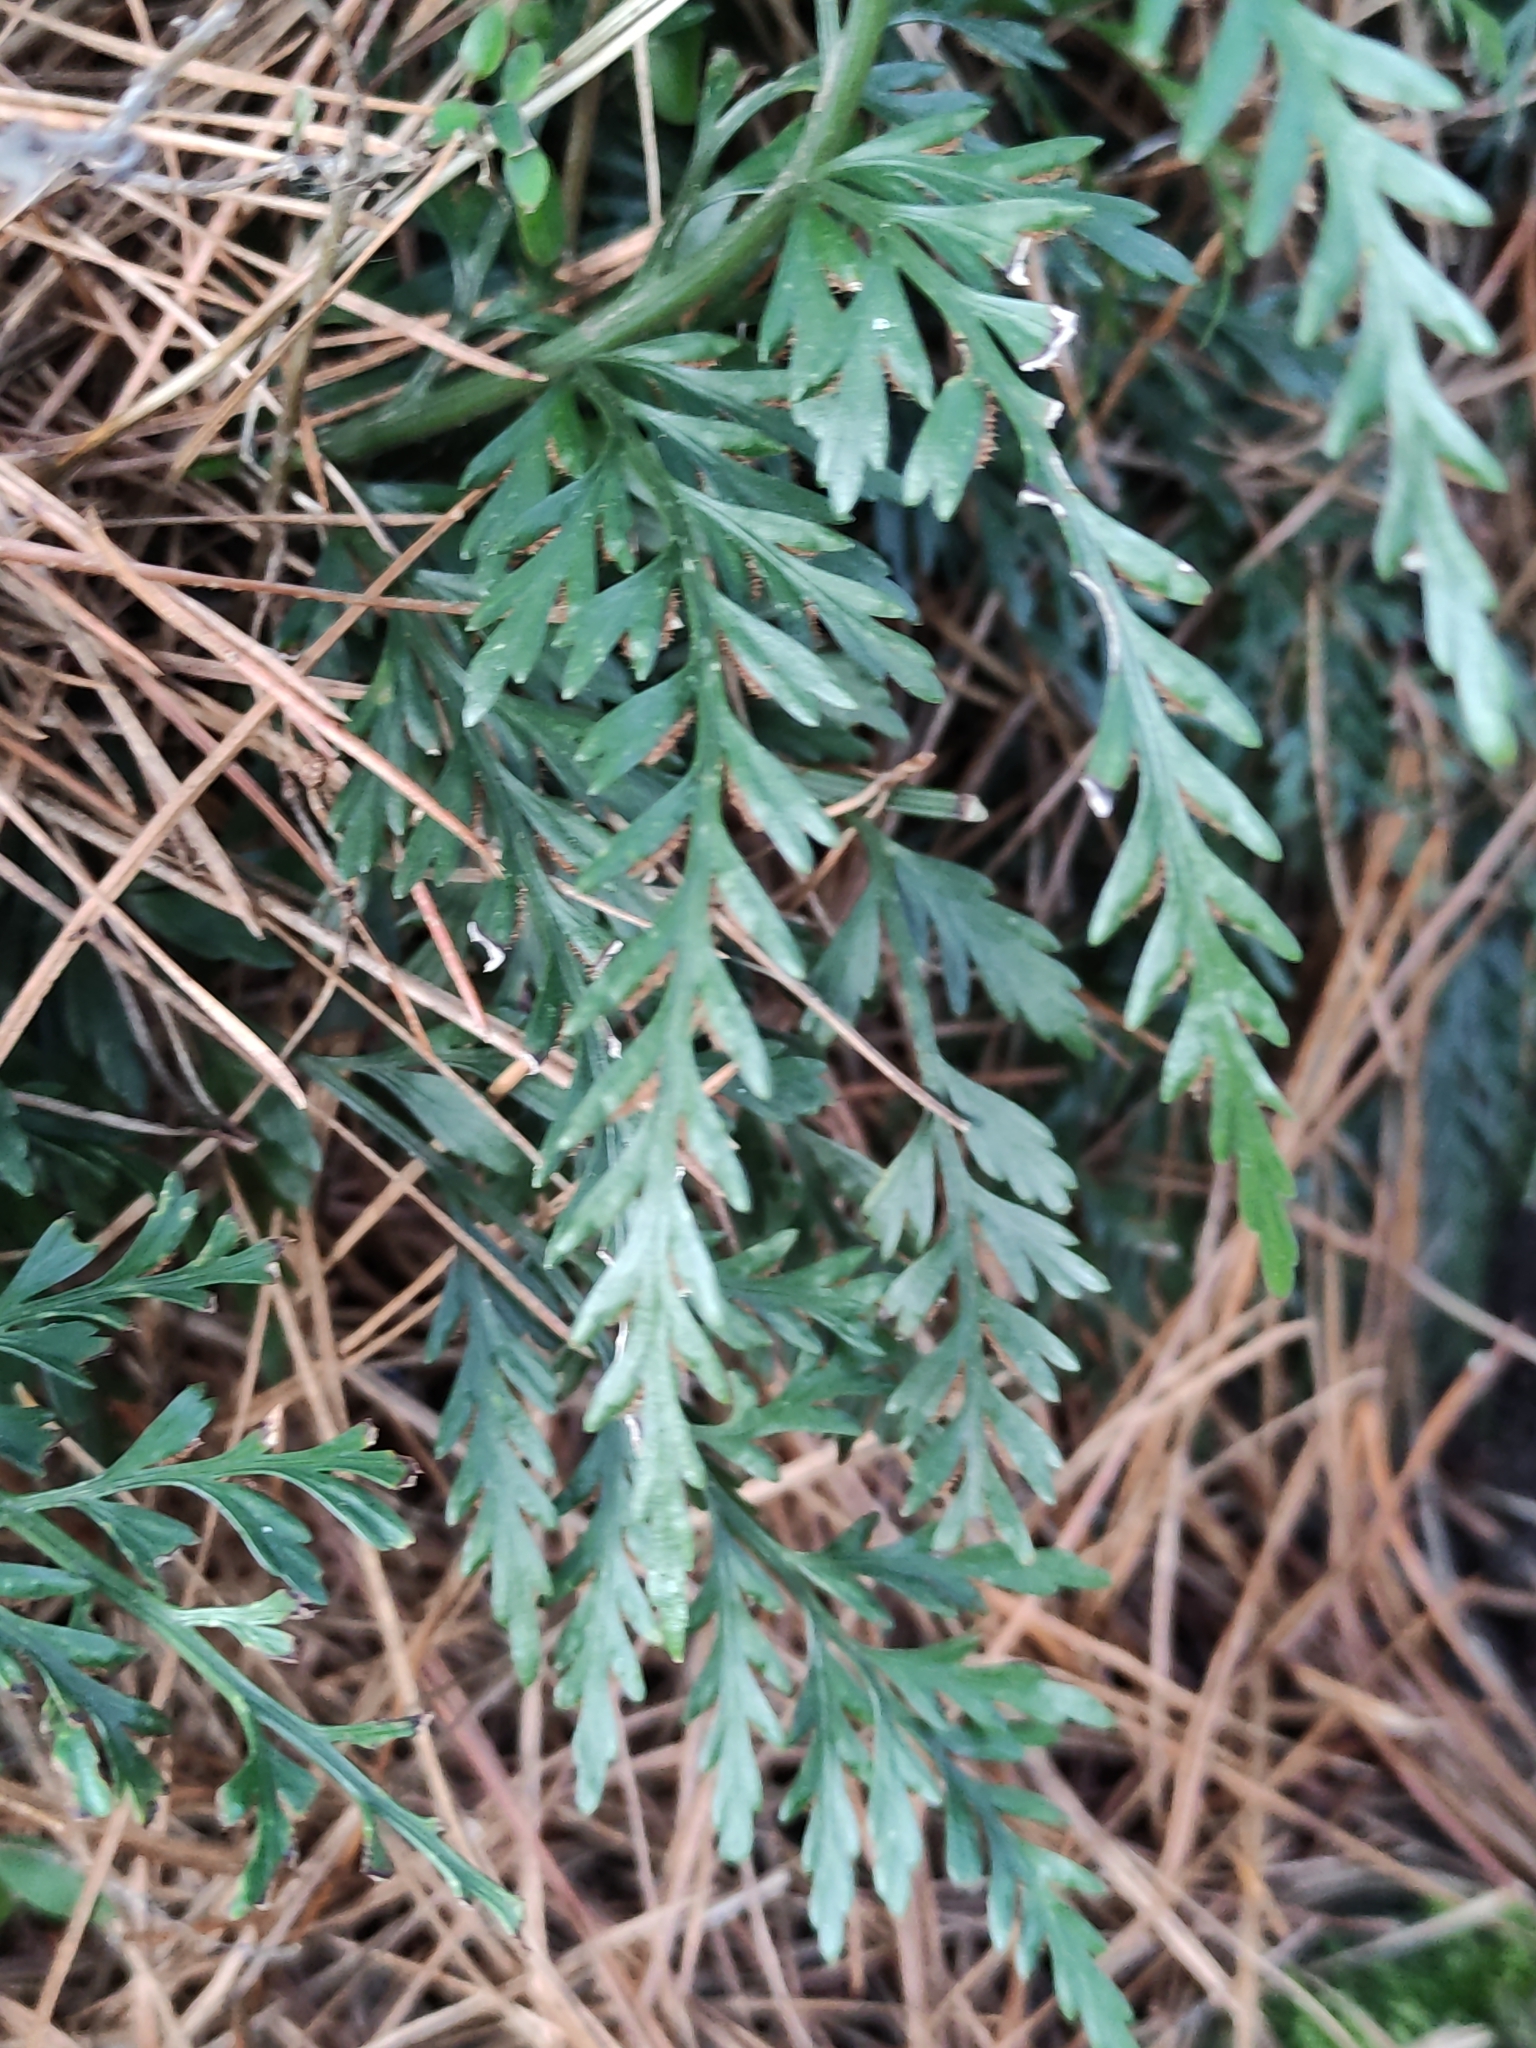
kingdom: Plantae
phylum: Tracheophyta
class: Polypodiopsida
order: Polypodiales
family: Aspleniaceae
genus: Asplenium
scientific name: Asplenium appendiculatum
